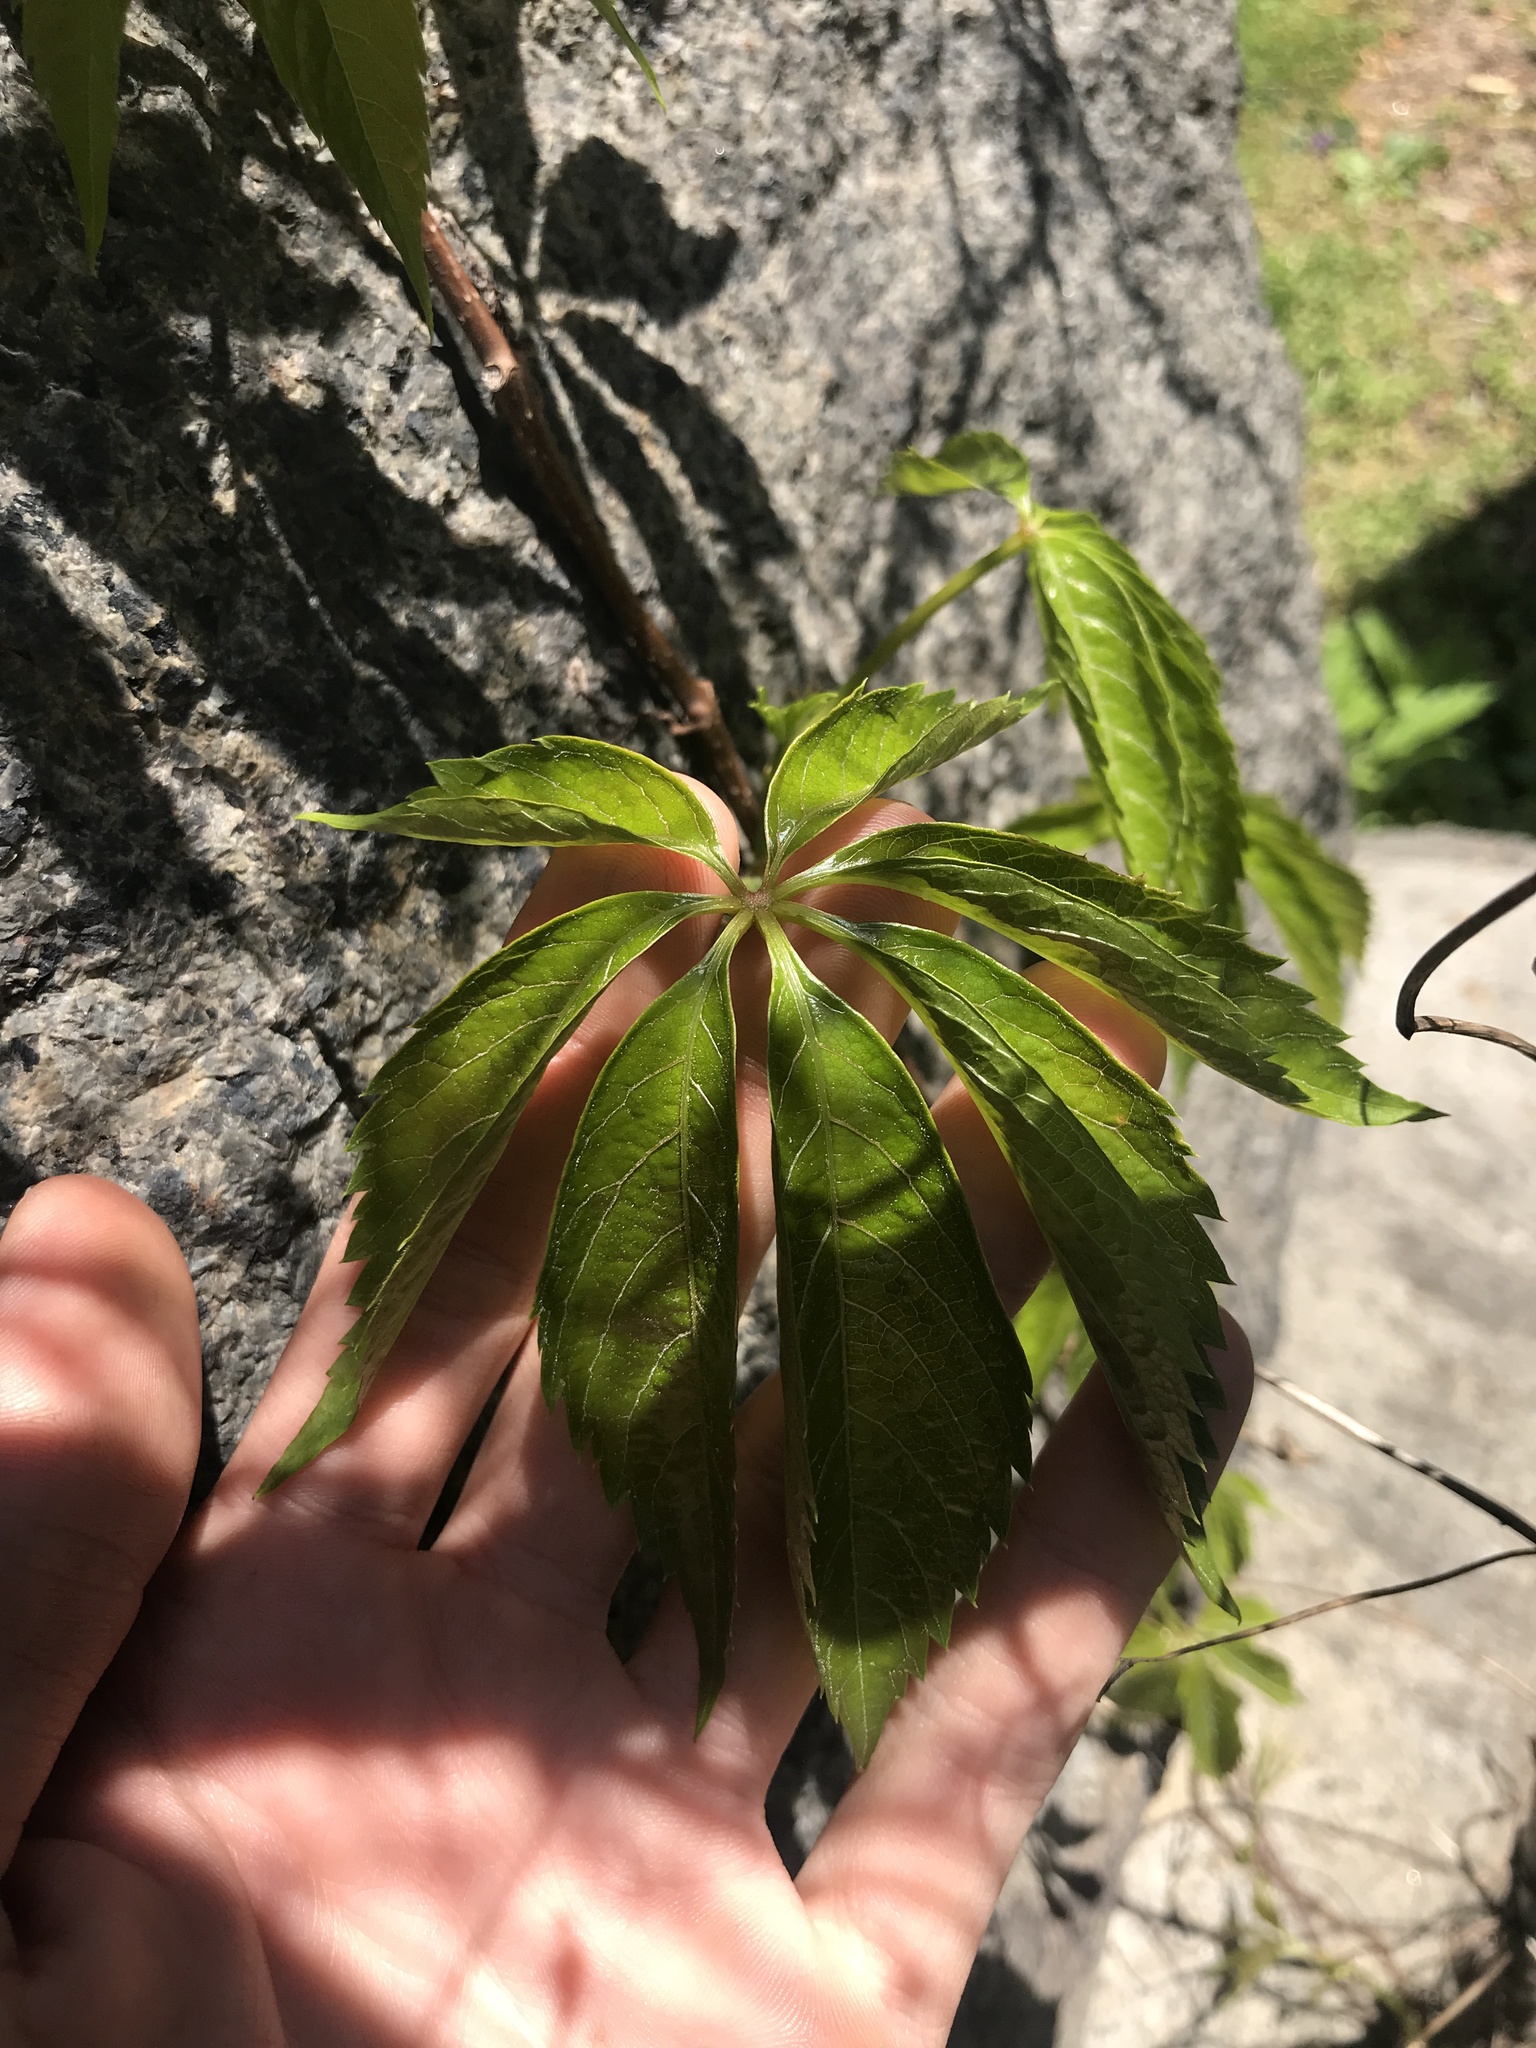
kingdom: Plantae
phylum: Tracheophyta
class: Magnoliopsida
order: Vitales
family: Vitaceae
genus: Parthenocissus
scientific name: Parthenocissus quinquefolia
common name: Virginia-creeper
